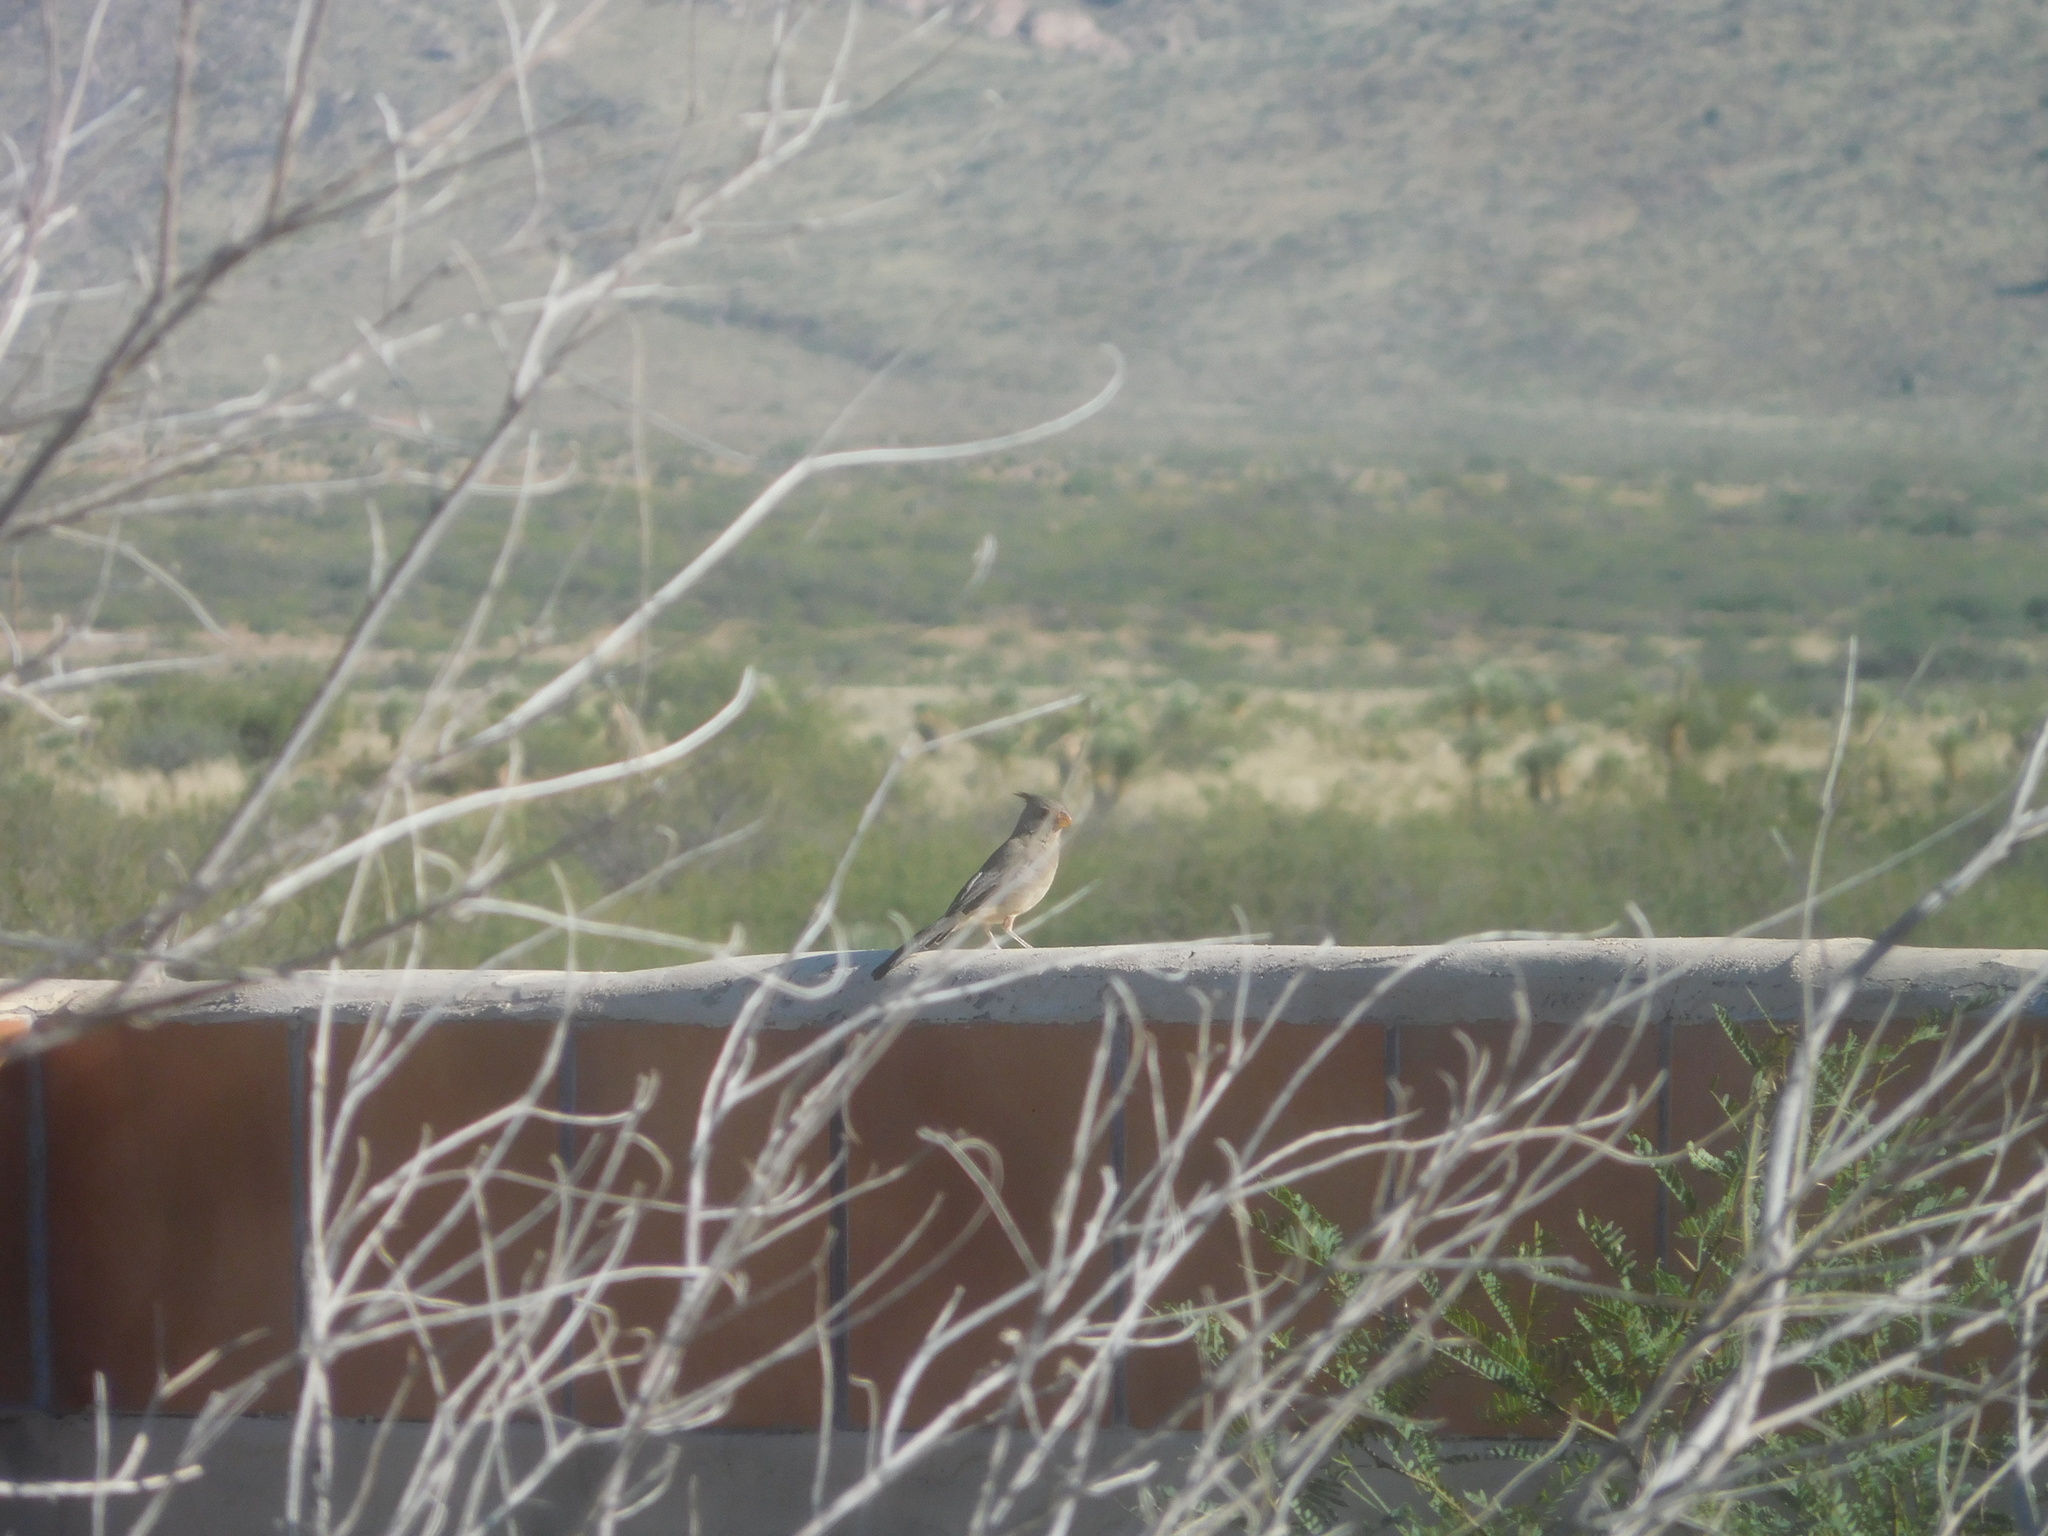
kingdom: Animalia
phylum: Chordata
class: Aves
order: Passeriformes
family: Cardinalidae
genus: Cardinalis
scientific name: Cardinalis sinuatus
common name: Pyrrhuloxia
